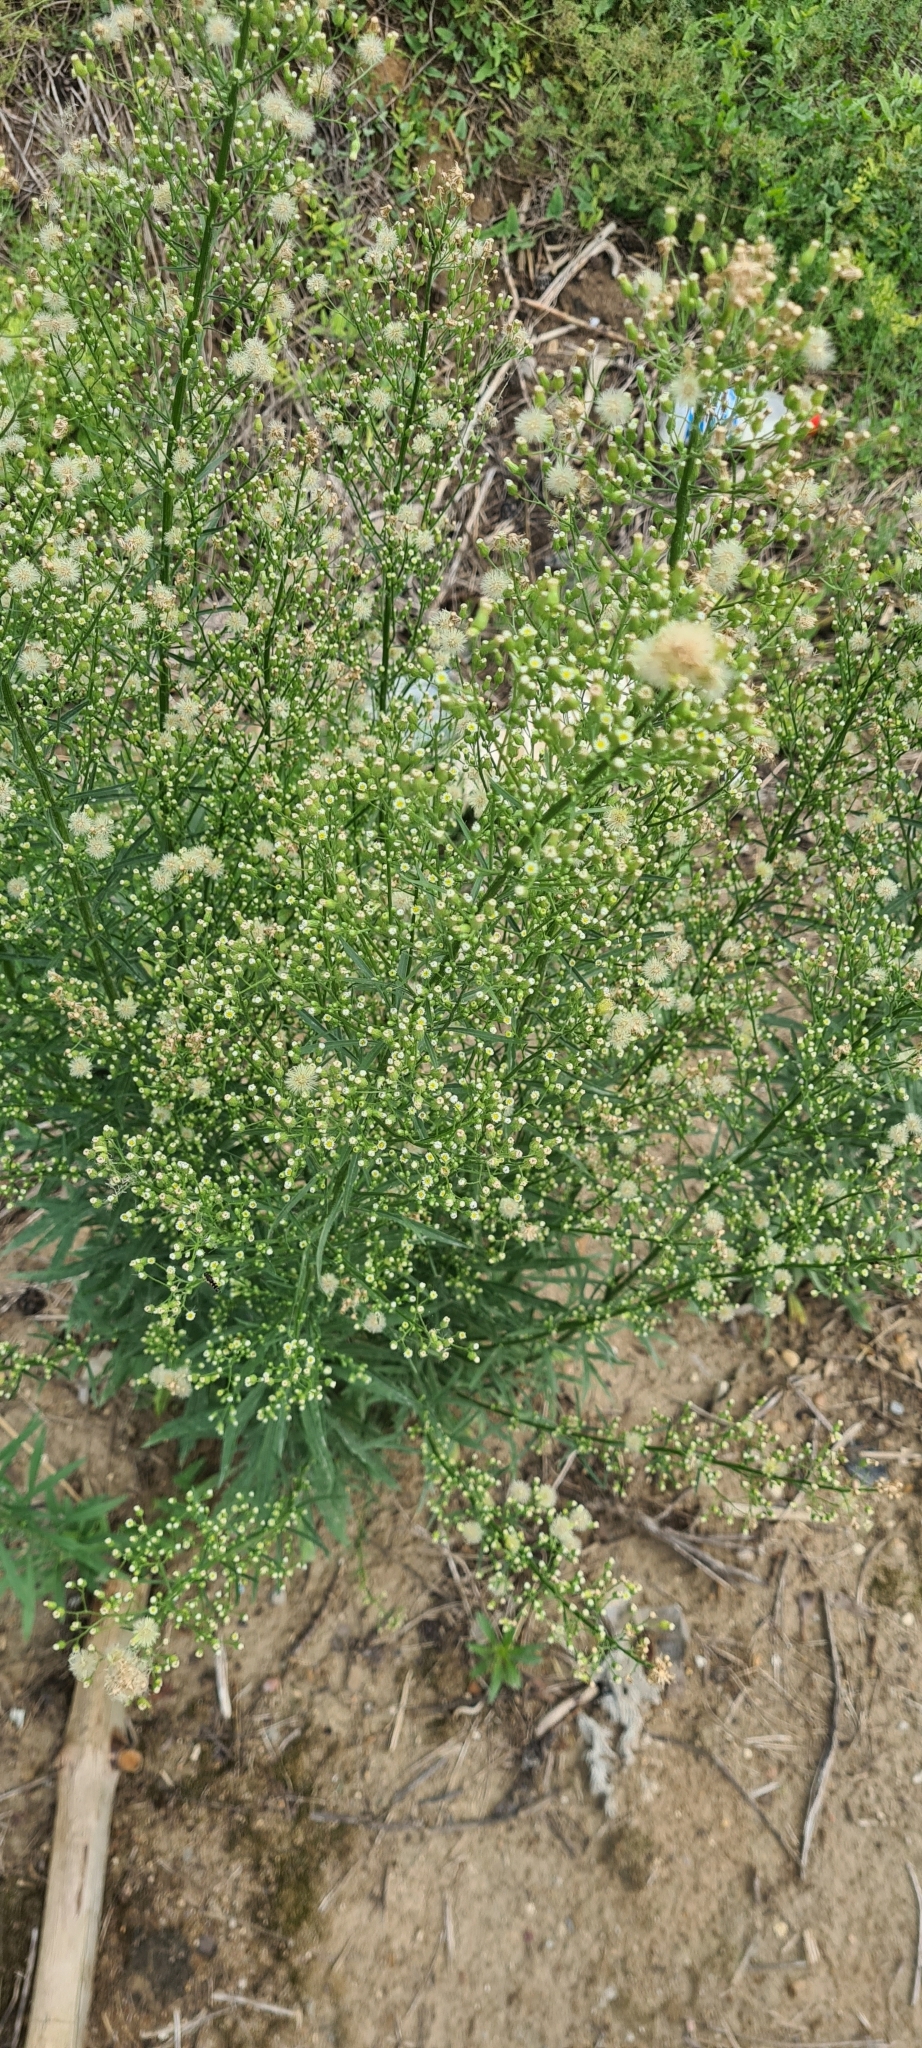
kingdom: Plantae
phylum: Tracheophyta
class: Magnoliopsida
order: Asterales
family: Asteraceae
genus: Erigeron
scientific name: Erigeron canadensis
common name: Canadian fleabane
